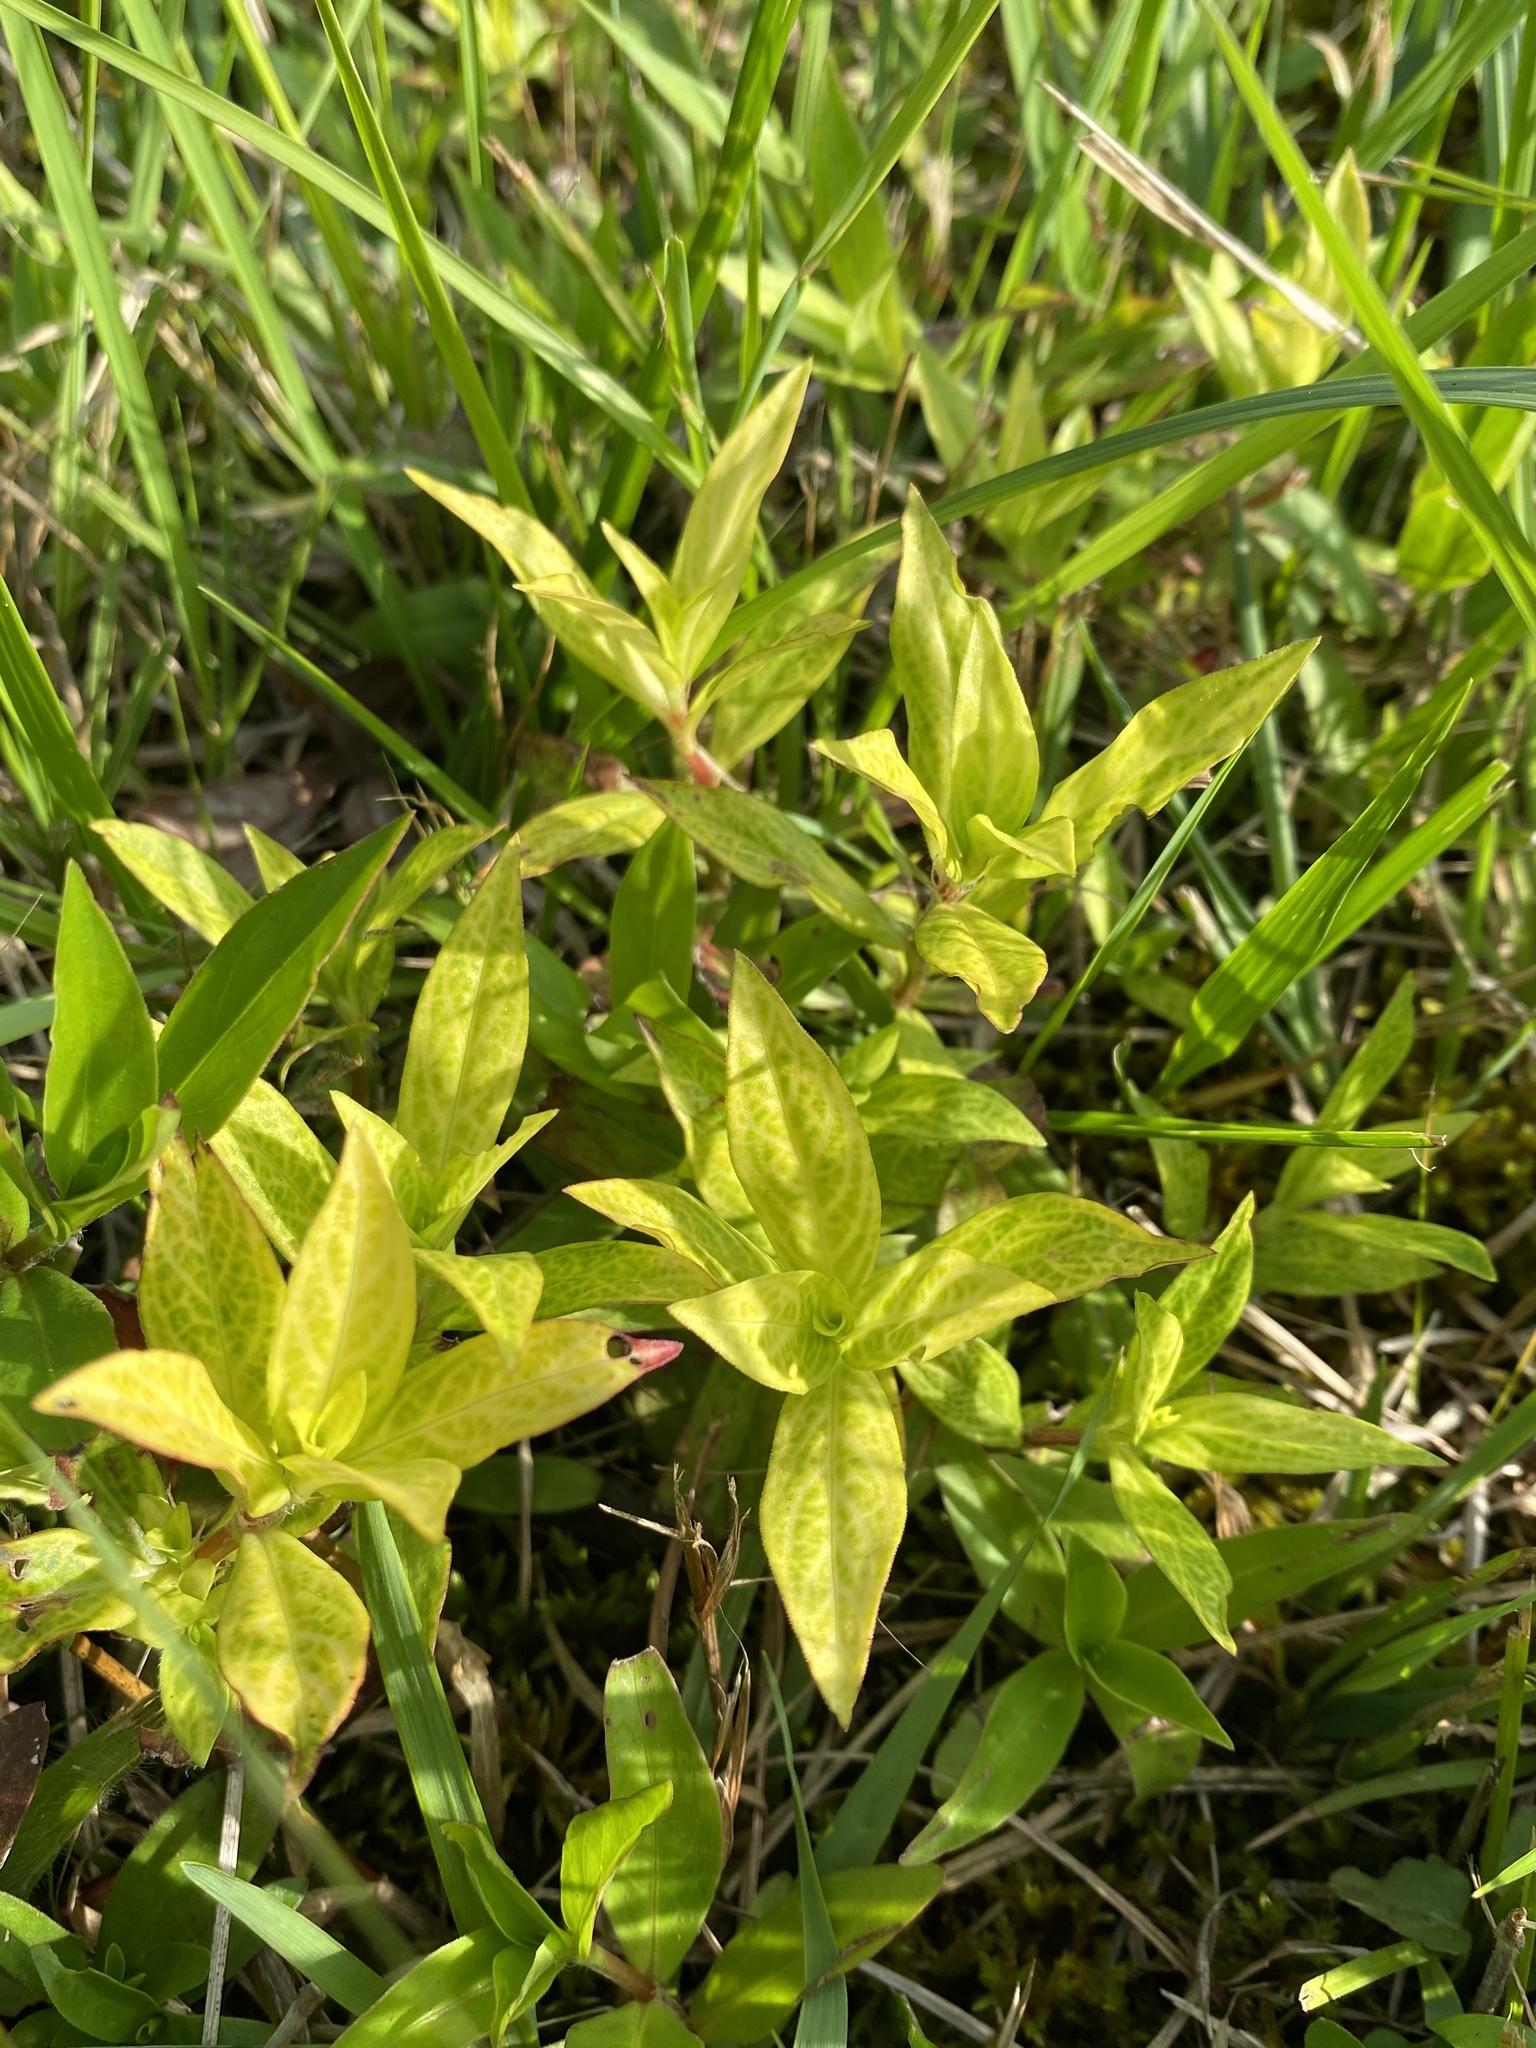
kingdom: Viruses
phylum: Kitrinoviricota
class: Alsuviricetes
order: Martellivirales
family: Closteroviridae
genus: Crinivirus
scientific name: Crinivirus Diodia vein chlorosis virus
